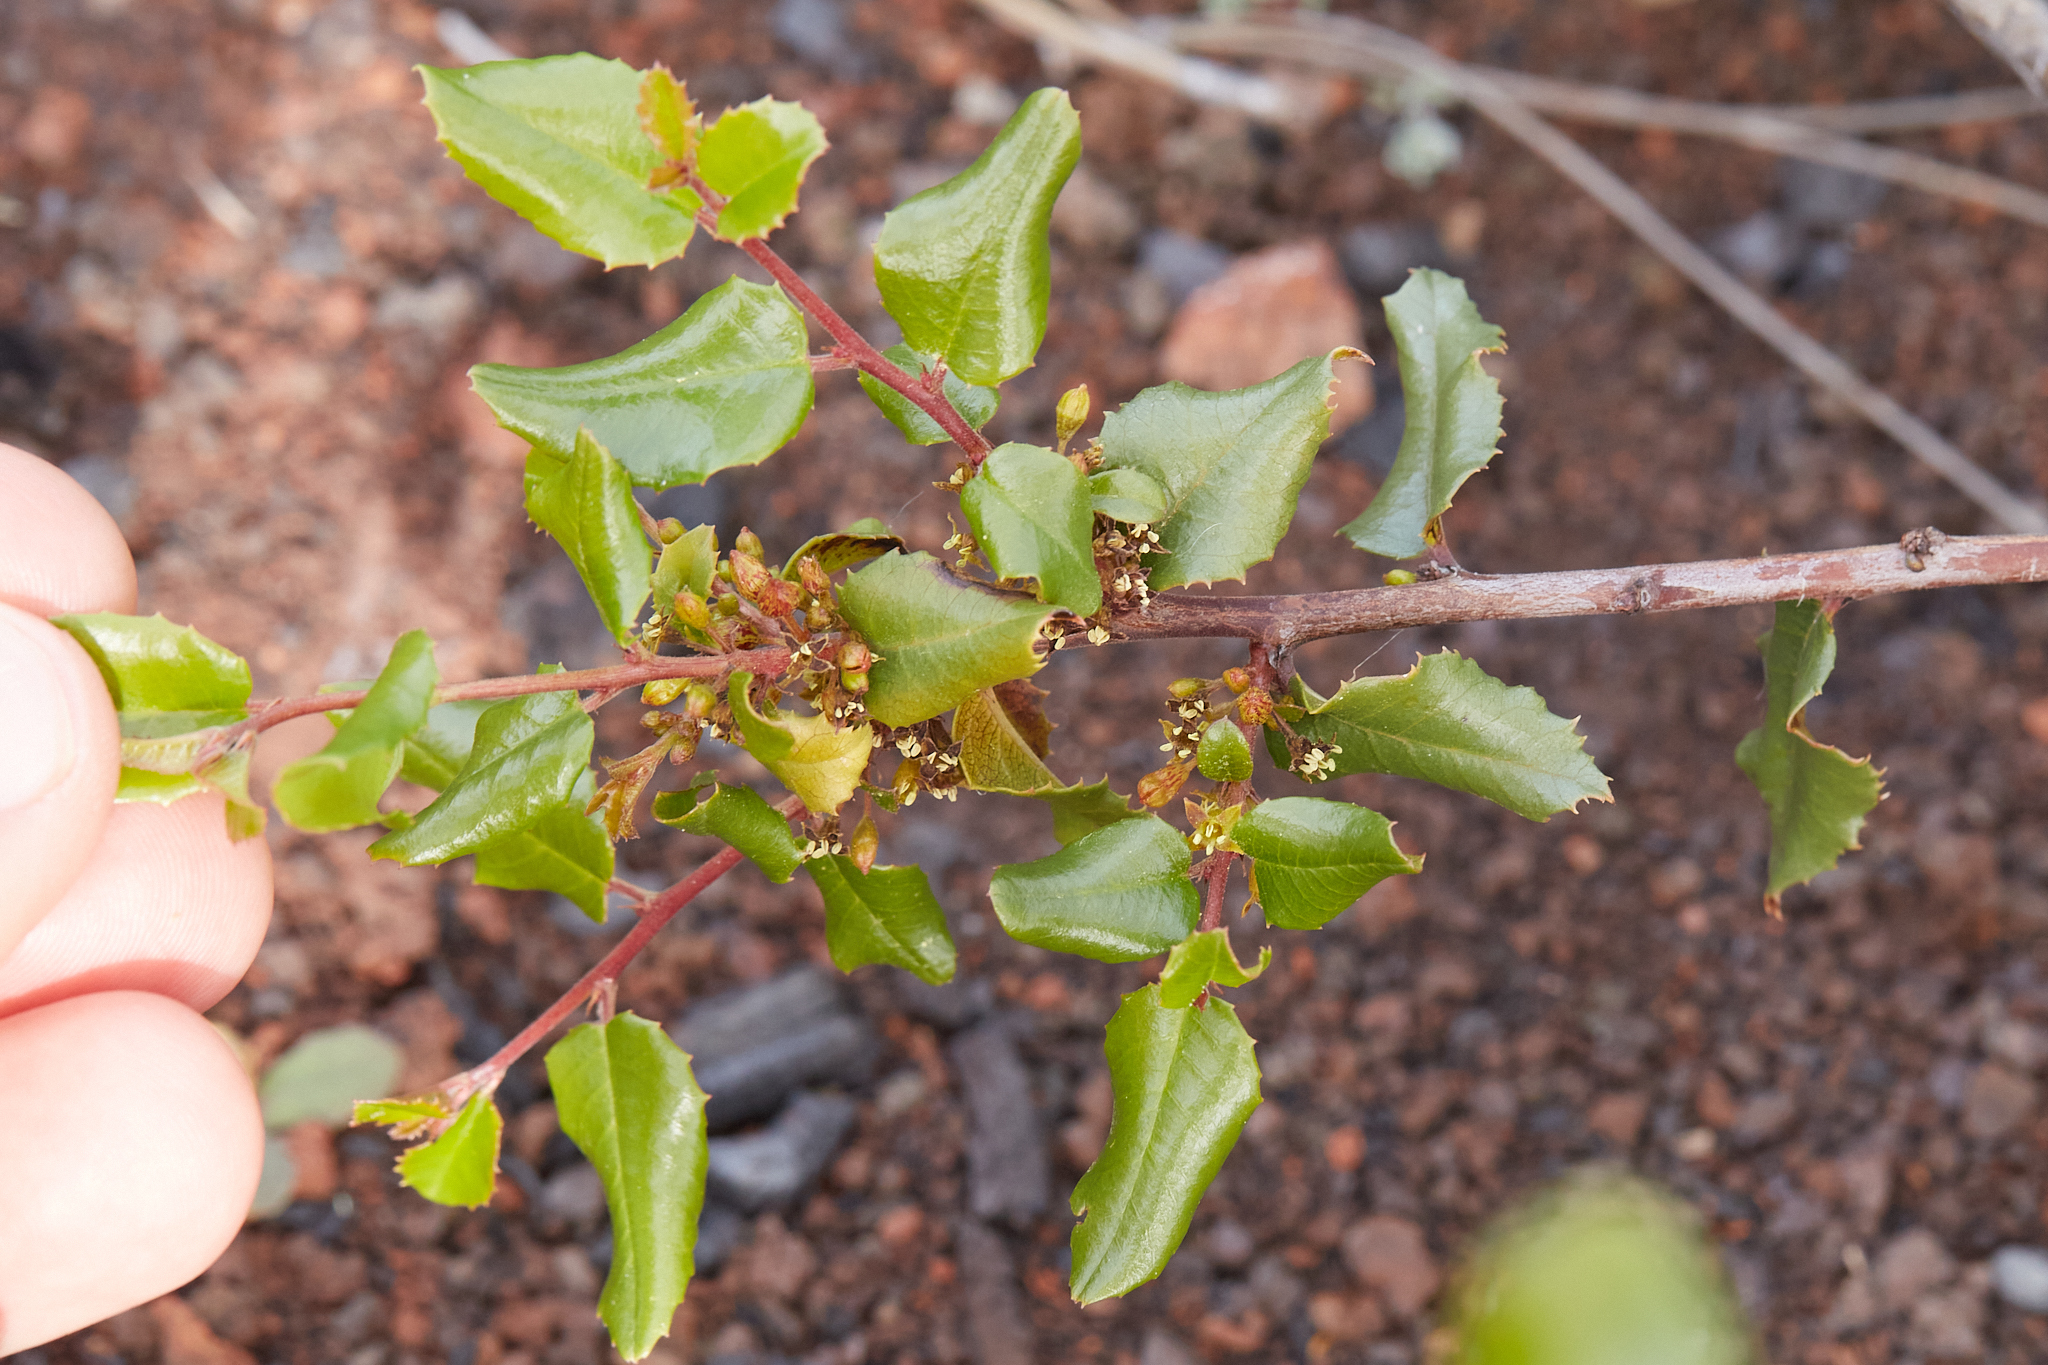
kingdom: Plantae
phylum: Tracheophyta
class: Magnoliopsida
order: Rosales
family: Rhamnaceae
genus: Endotropis
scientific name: Endotropis crocea
